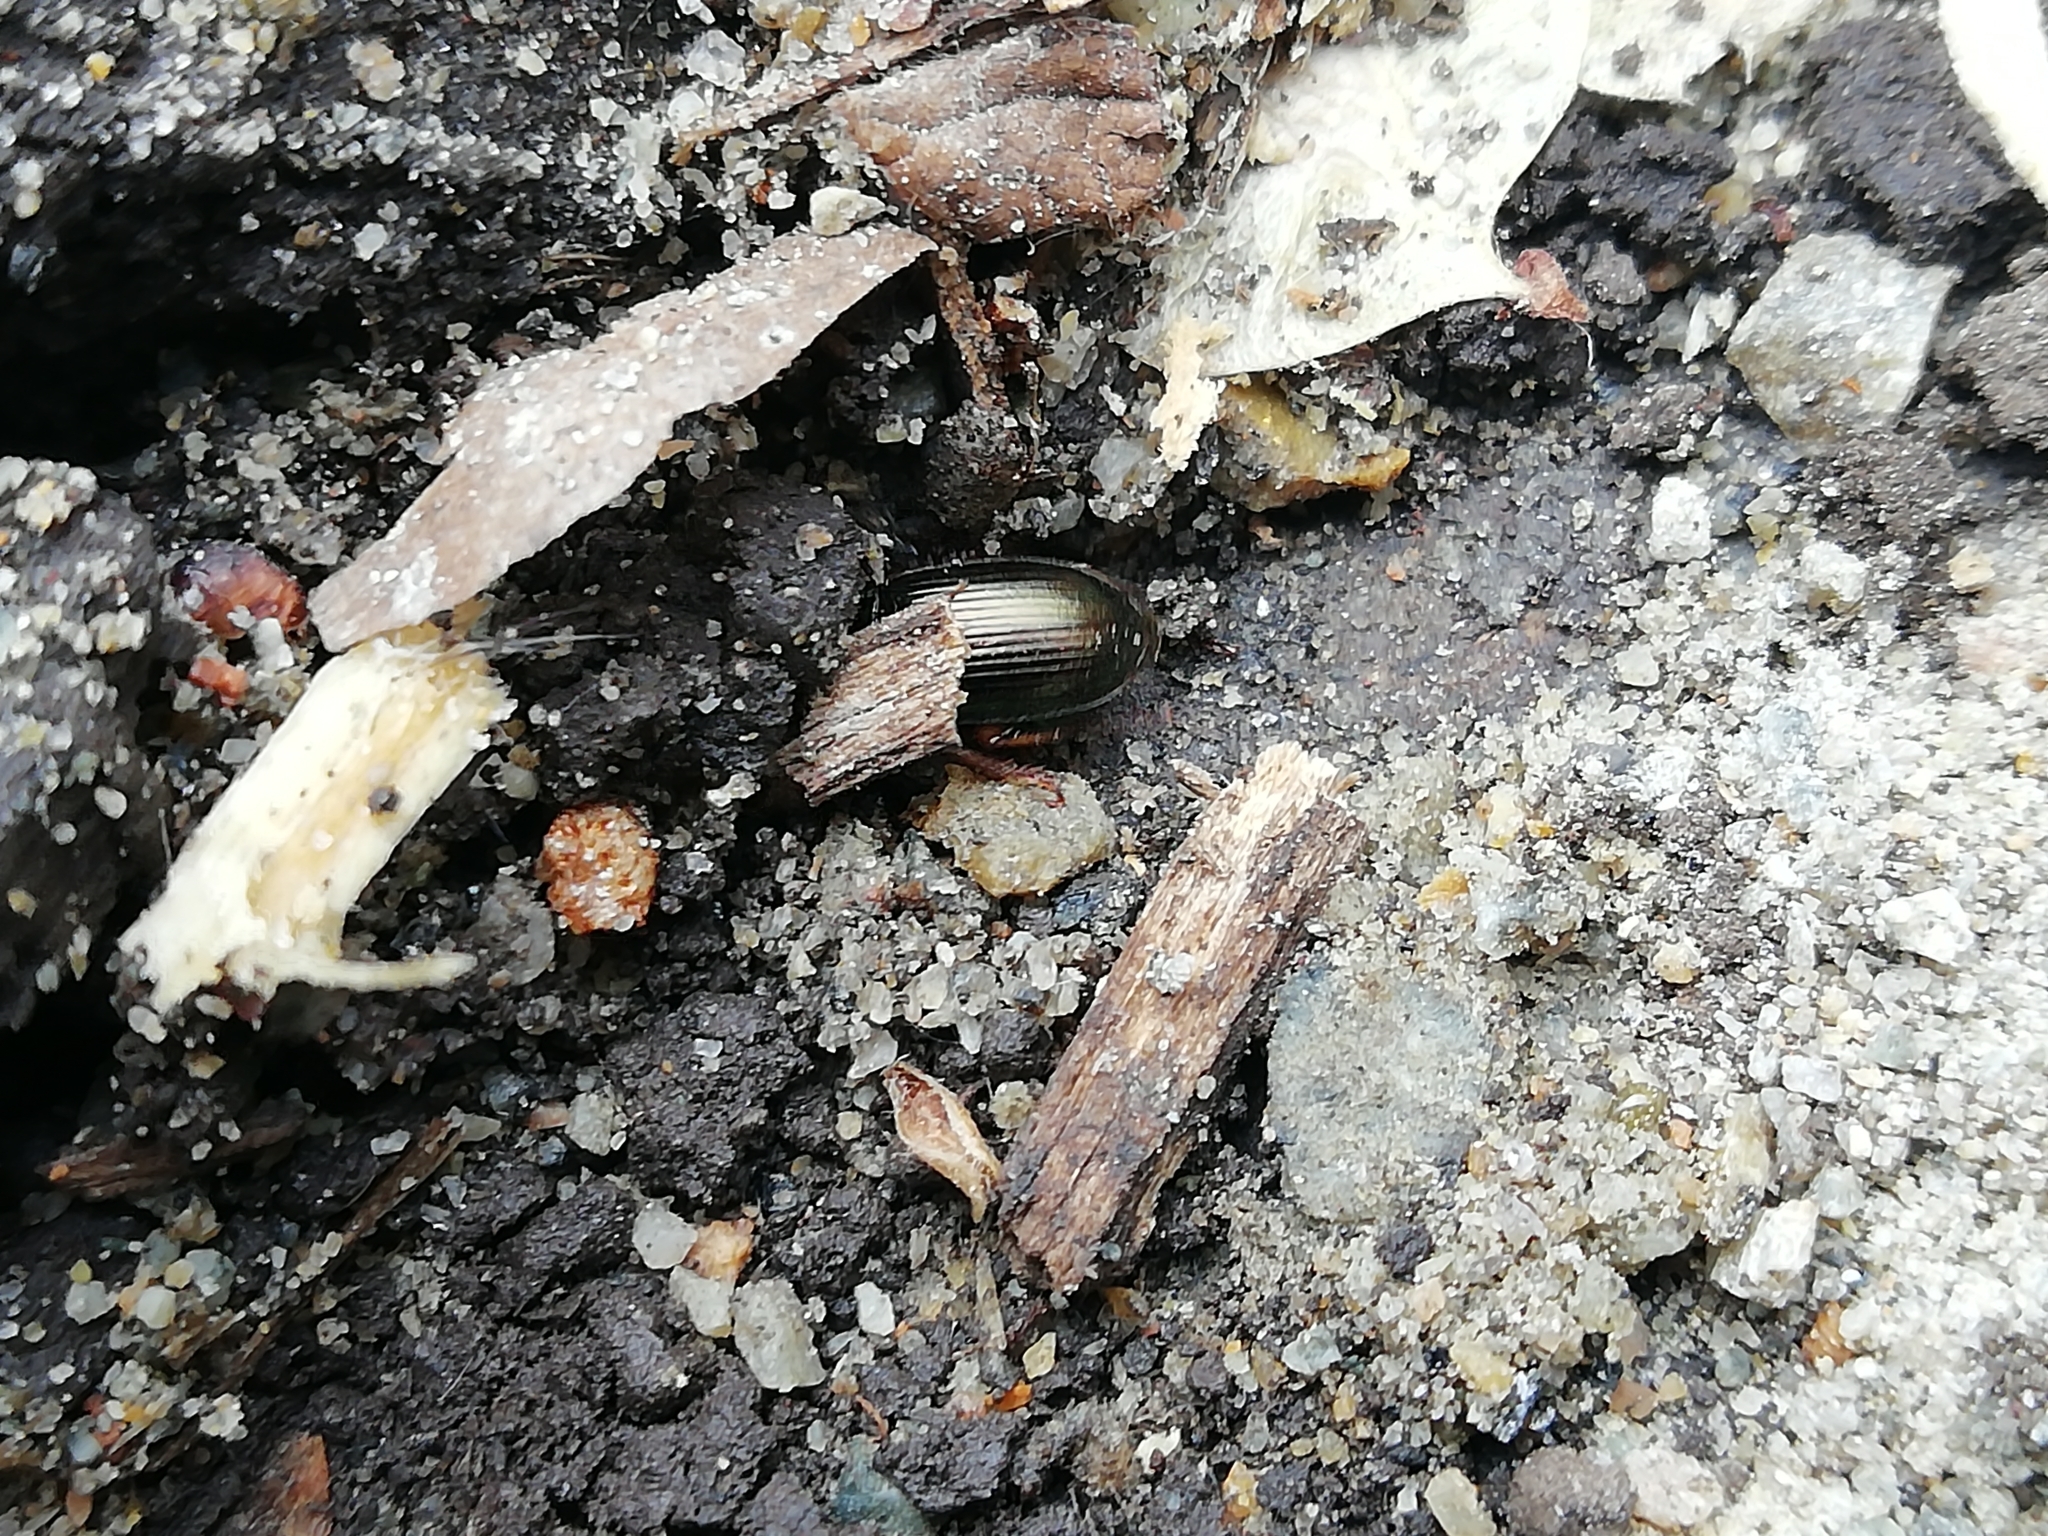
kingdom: Animalia
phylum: Arthropoda
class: Insecta
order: Coleoptera
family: Carabidae
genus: Harpalus
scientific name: Harpalus affinis
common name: Polychrome harp ground beetle
